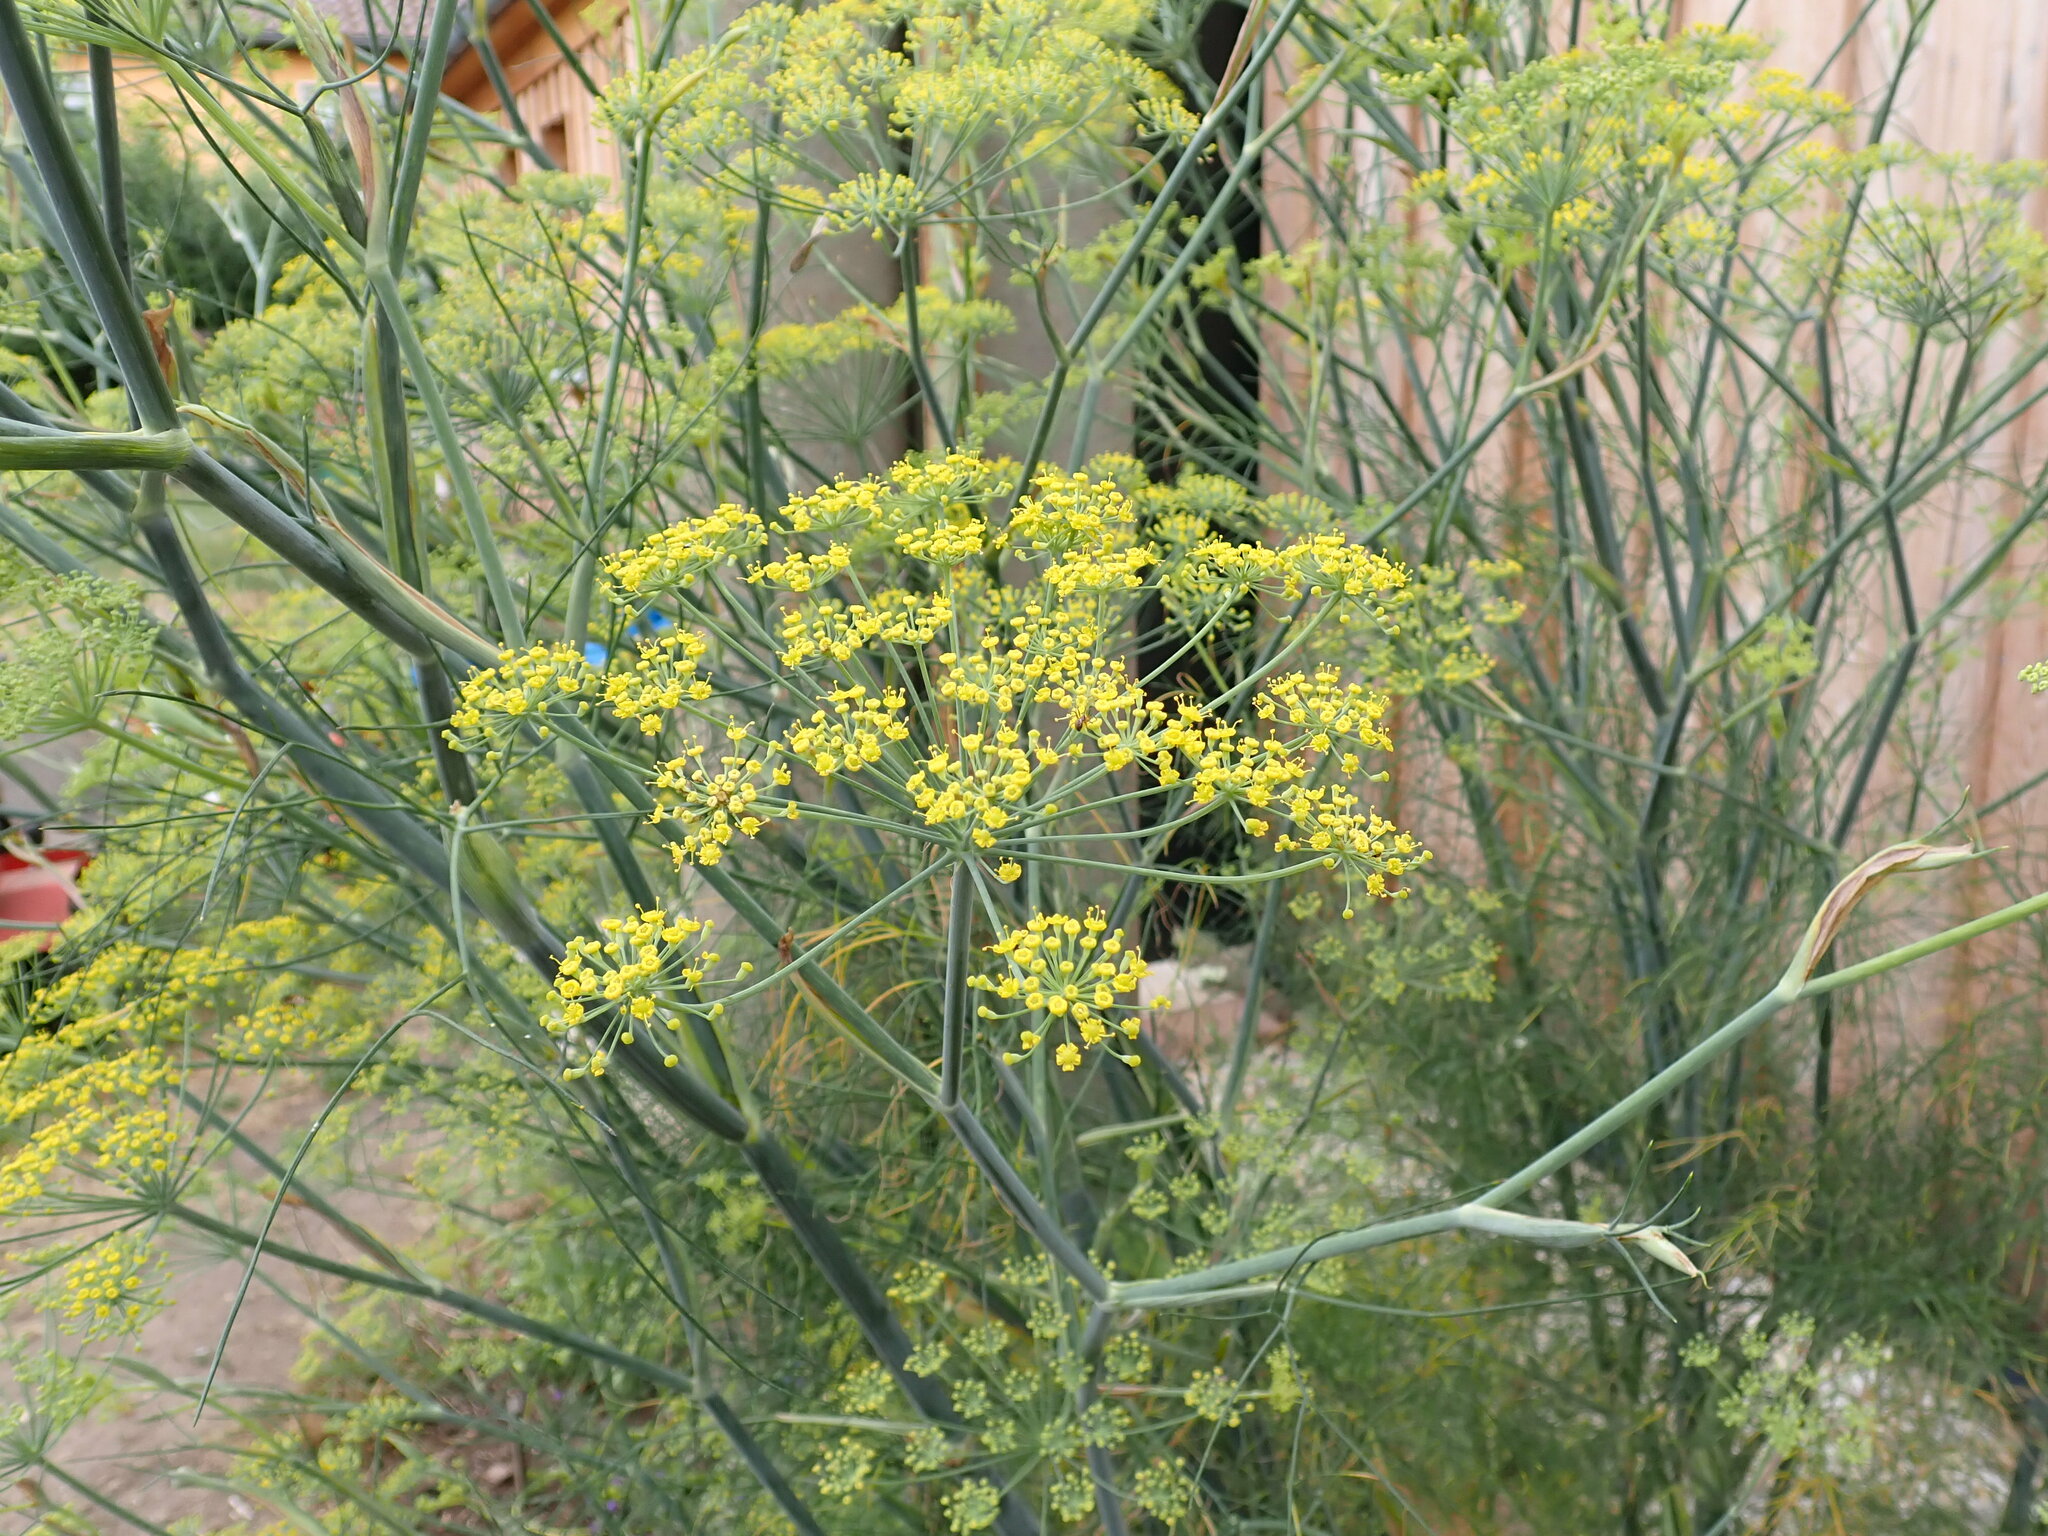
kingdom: Plantae
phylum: Tracheophyta
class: Magnoliopsida
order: Apiales
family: Apiaceae
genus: Foeniculum
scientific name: Foeniculum vulgare
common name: Fennel
